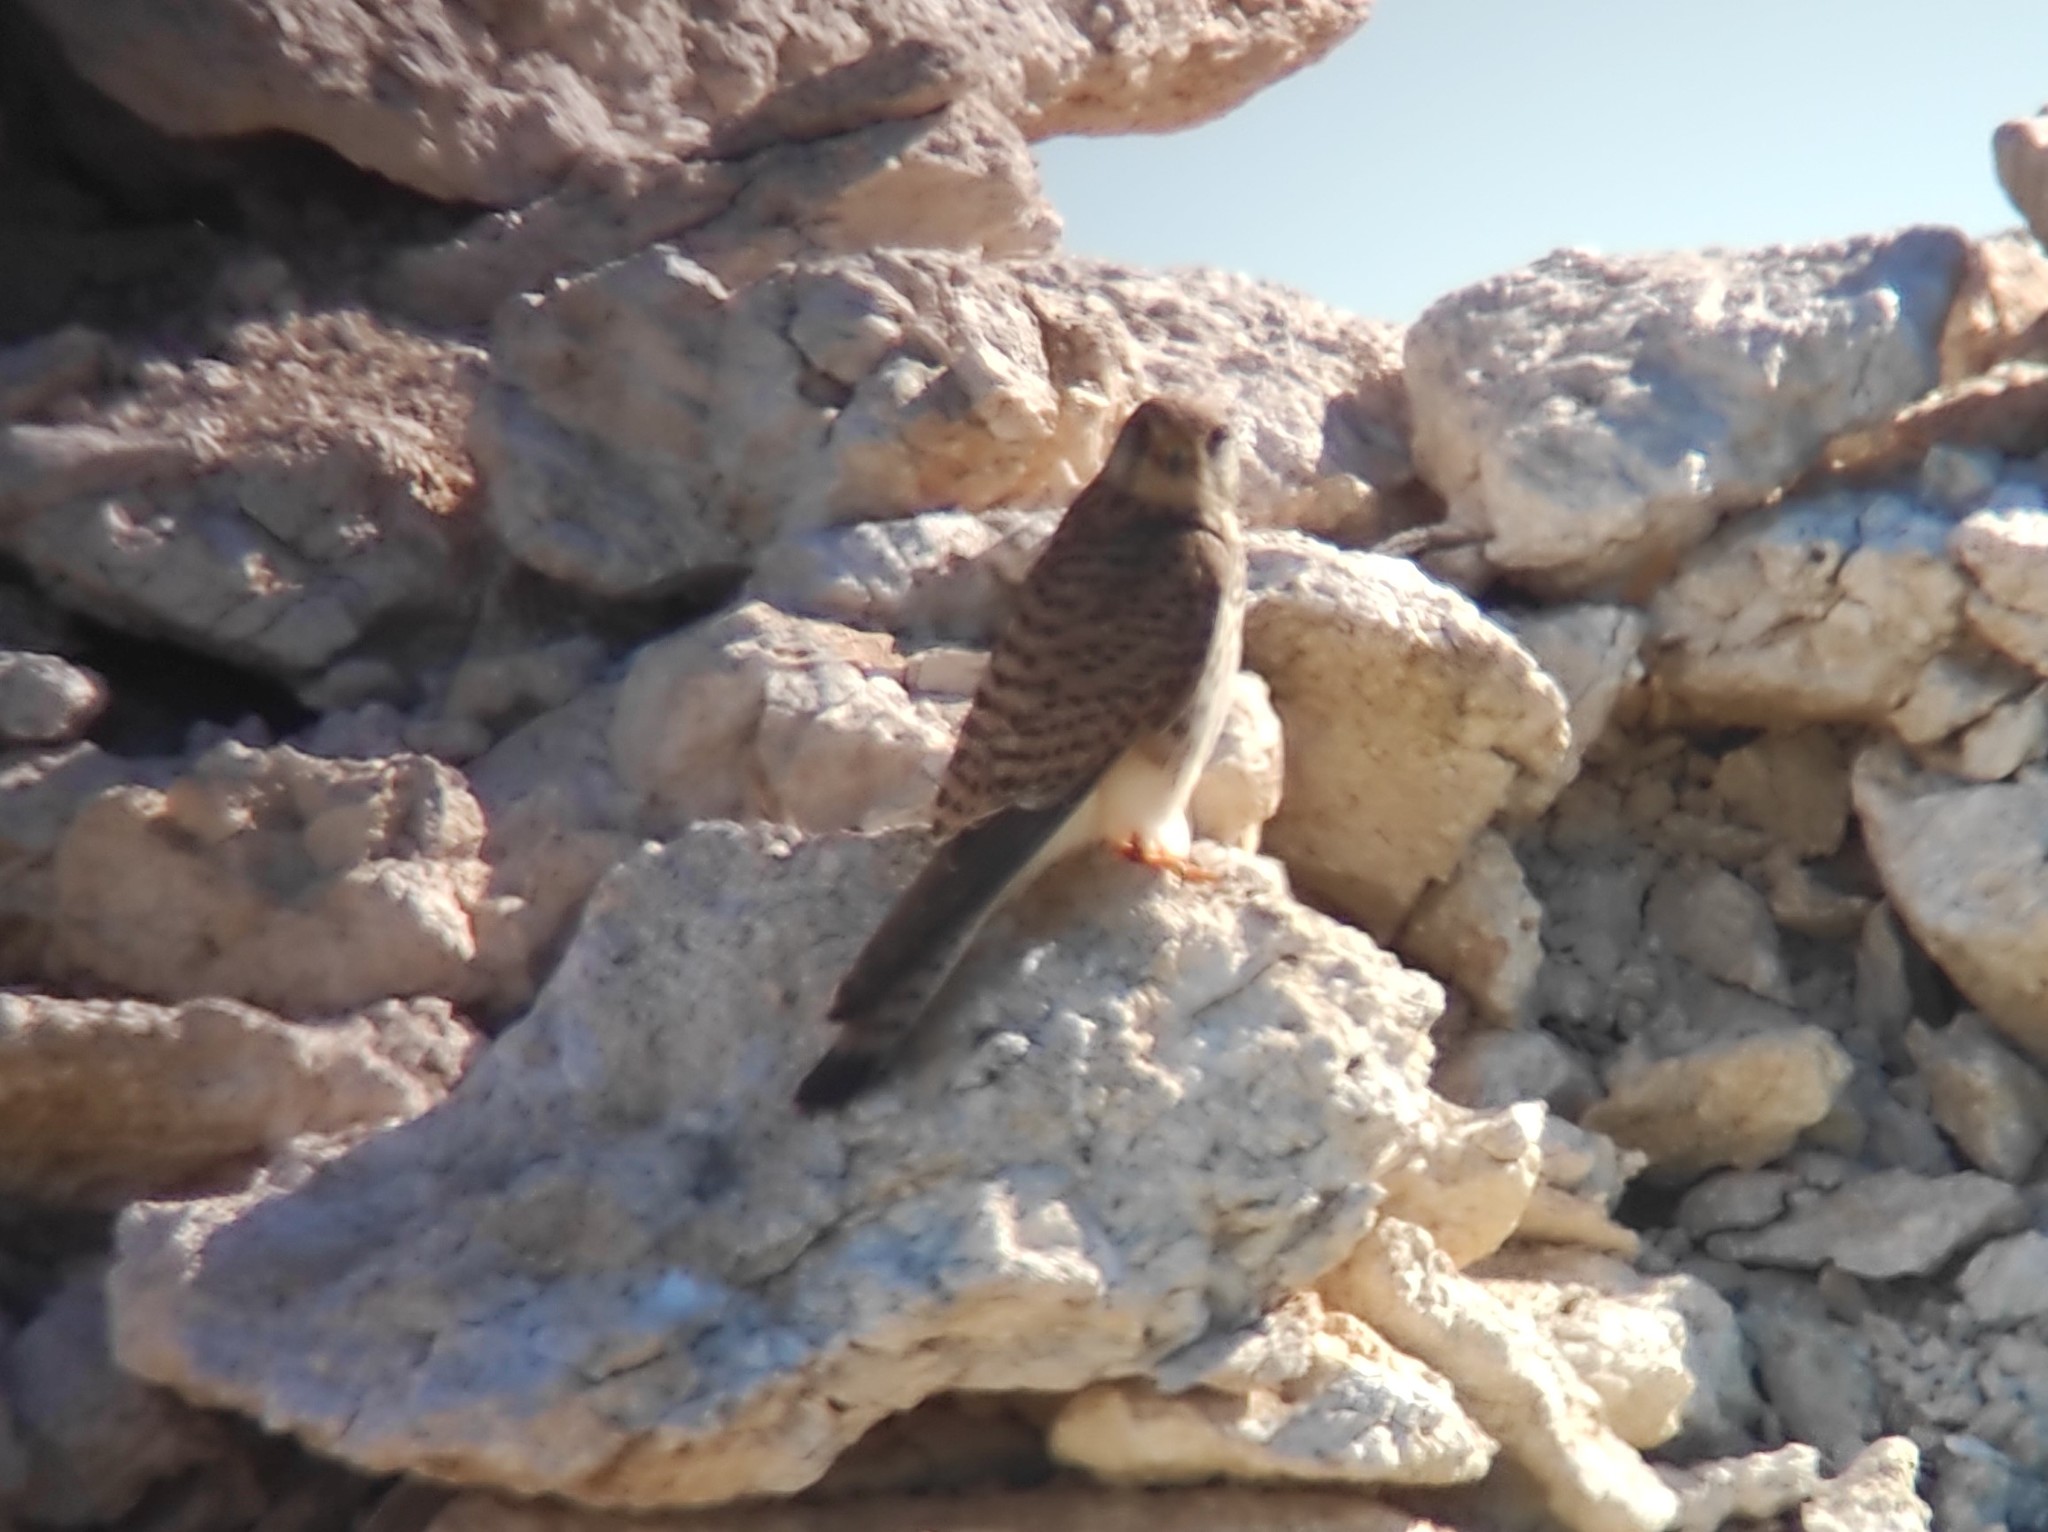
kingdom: Animalia
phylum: Chordata
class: Aves
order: Falconiformes
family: Falconidae
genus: Falco
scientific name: Falco tinnunculus
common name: Common kestrel
